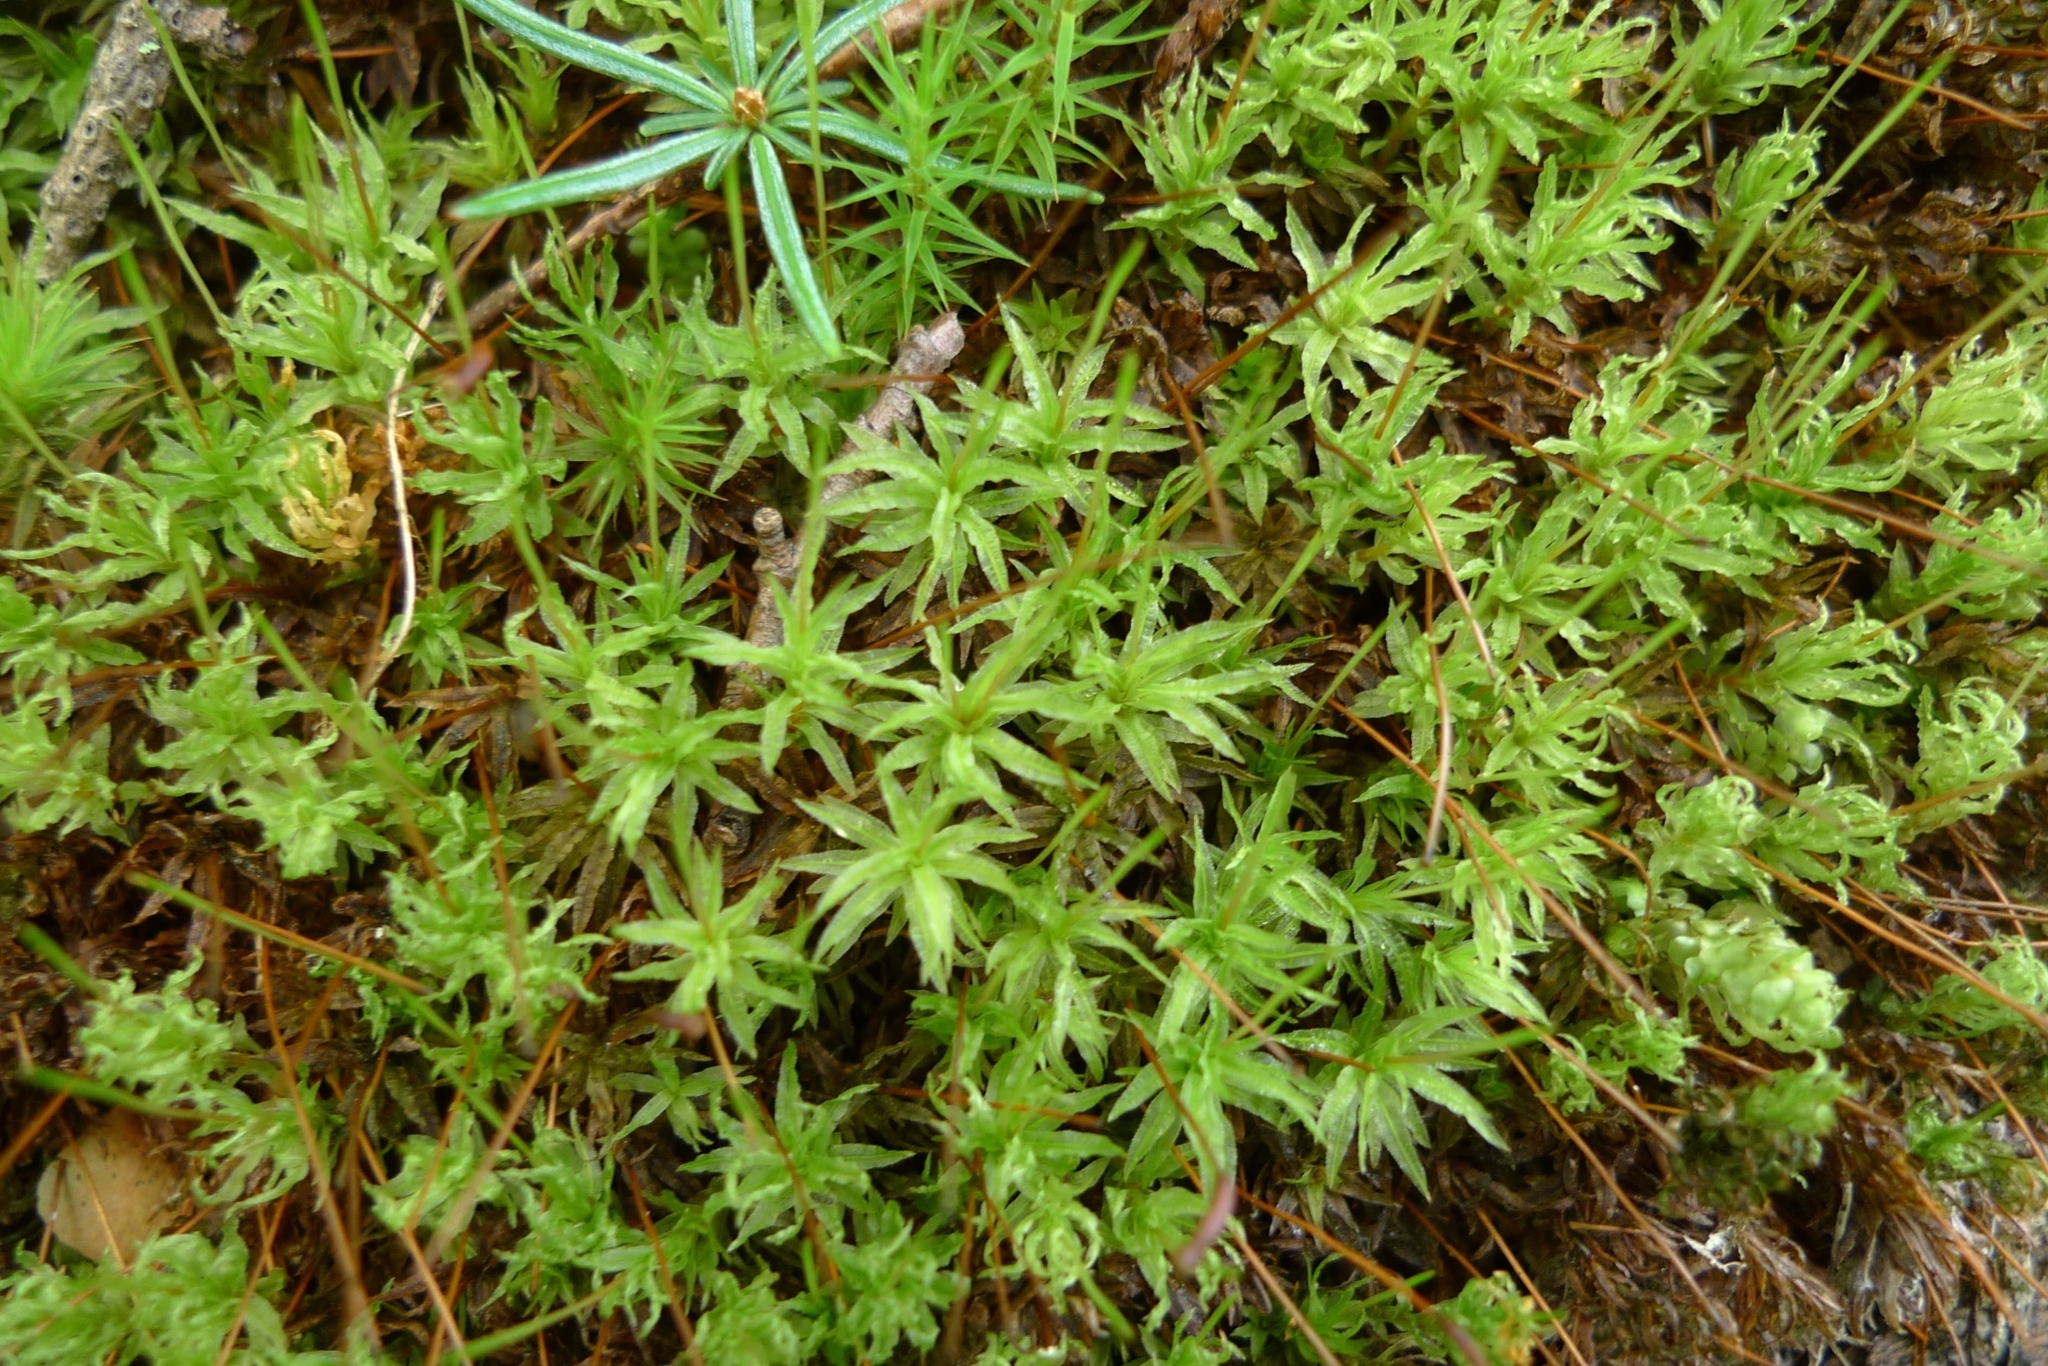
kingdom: Plantae
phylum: Bryophyta
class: Polytrichopsida
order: Polytrichales
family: Polytrichaceae
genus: Atrichum
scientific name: Atrichum undulatum
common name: Common smoothcap
